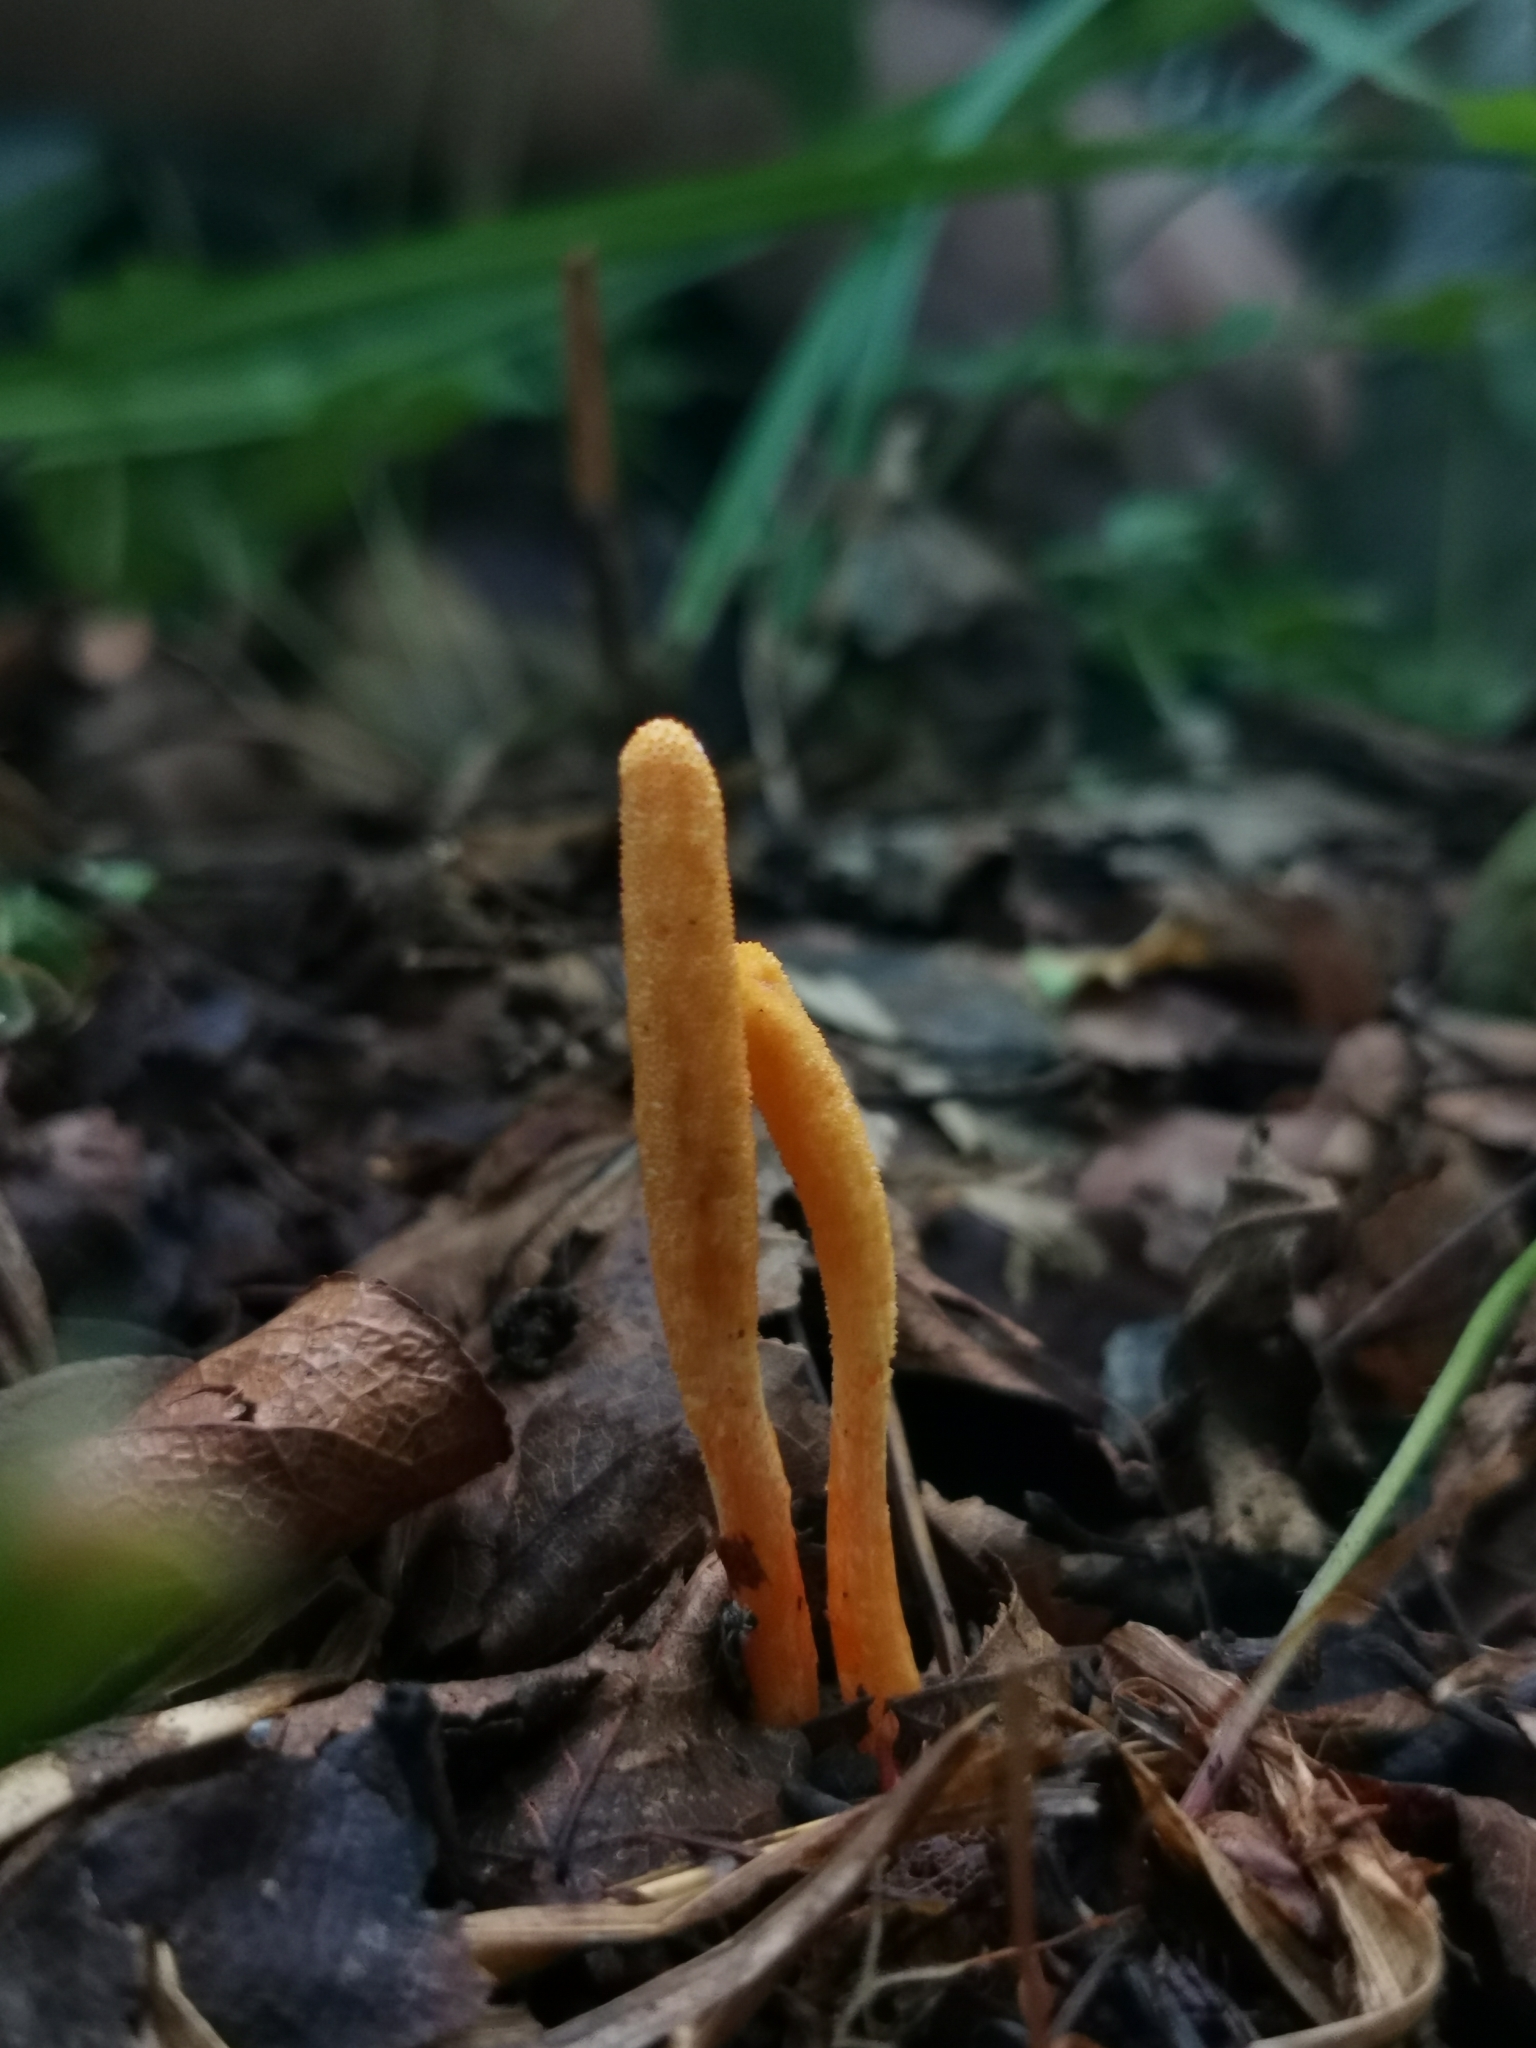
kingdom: Fungi
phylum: Ascomycota
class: Sordariomycetes
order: Hypocreales
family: Cordycipitaceae
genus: Cordyceps
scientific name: Cordyceps militaris
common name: Scarlet caterpillar fungus
